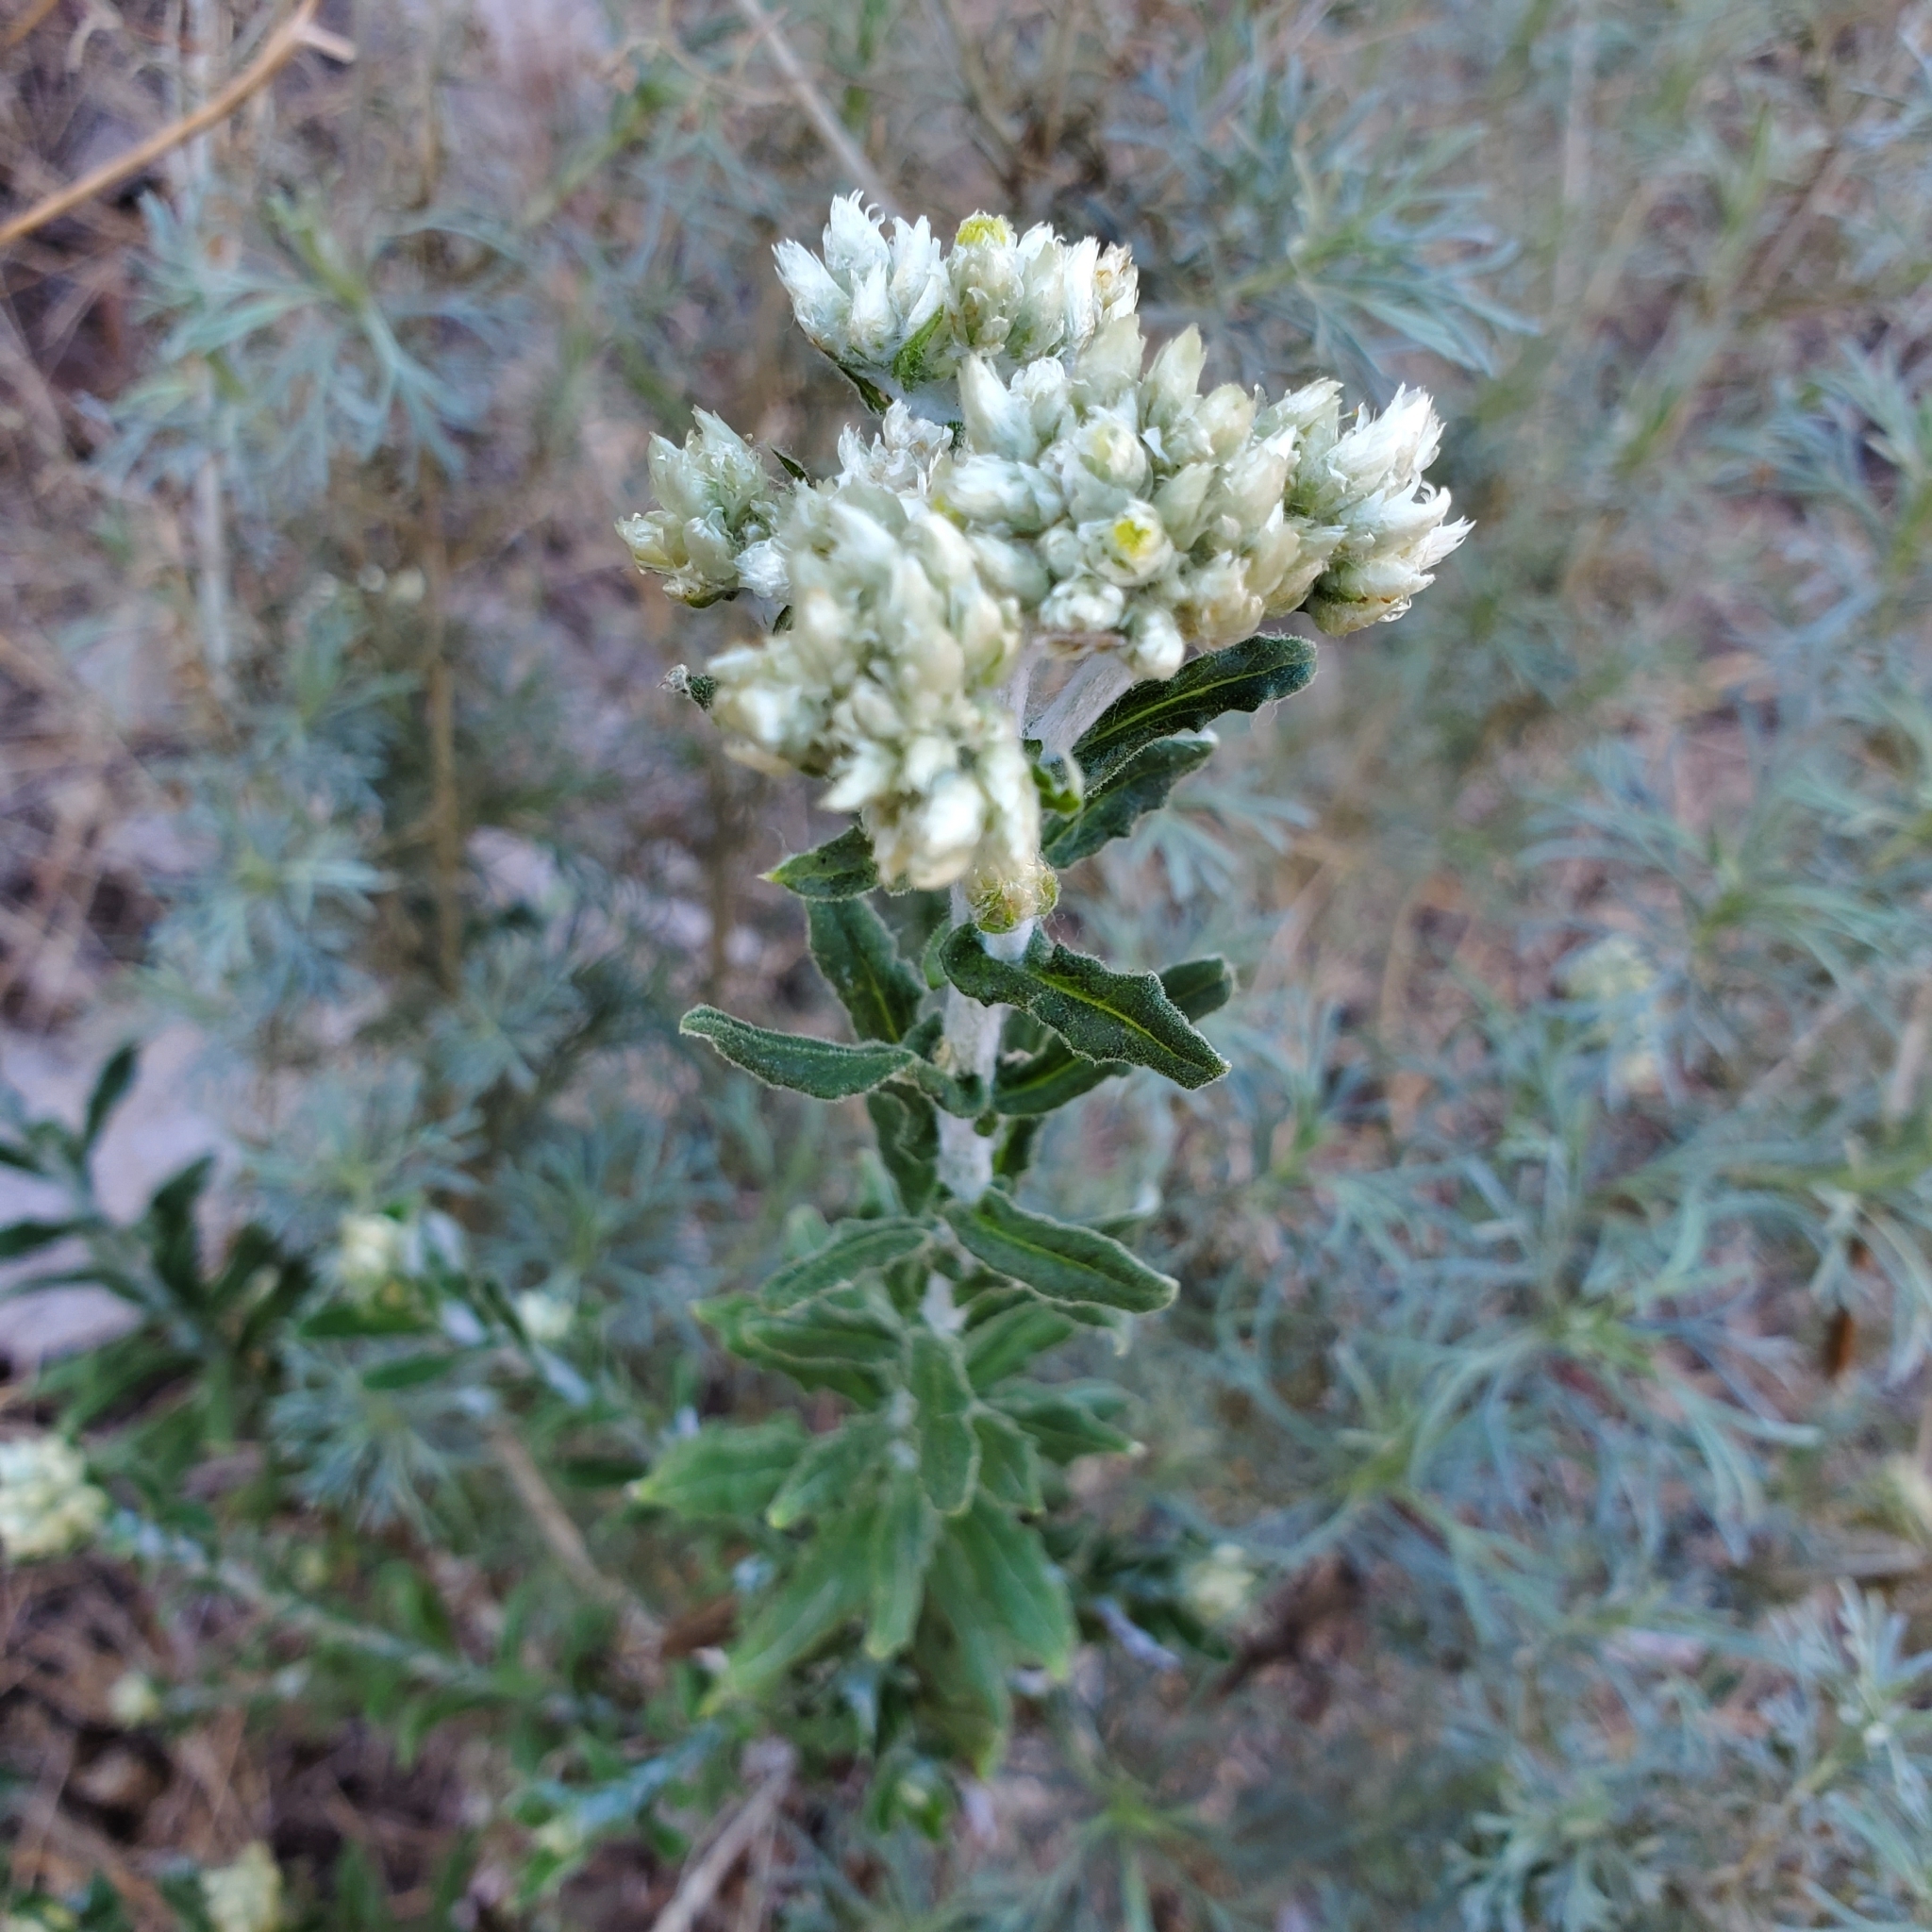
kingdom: Plantae
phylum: Tracheophyta
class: Magnoliopsida
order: Asterales
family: Asteraceae
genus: Pseudognaphalium
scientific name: Pseudognaphalium biolettii
